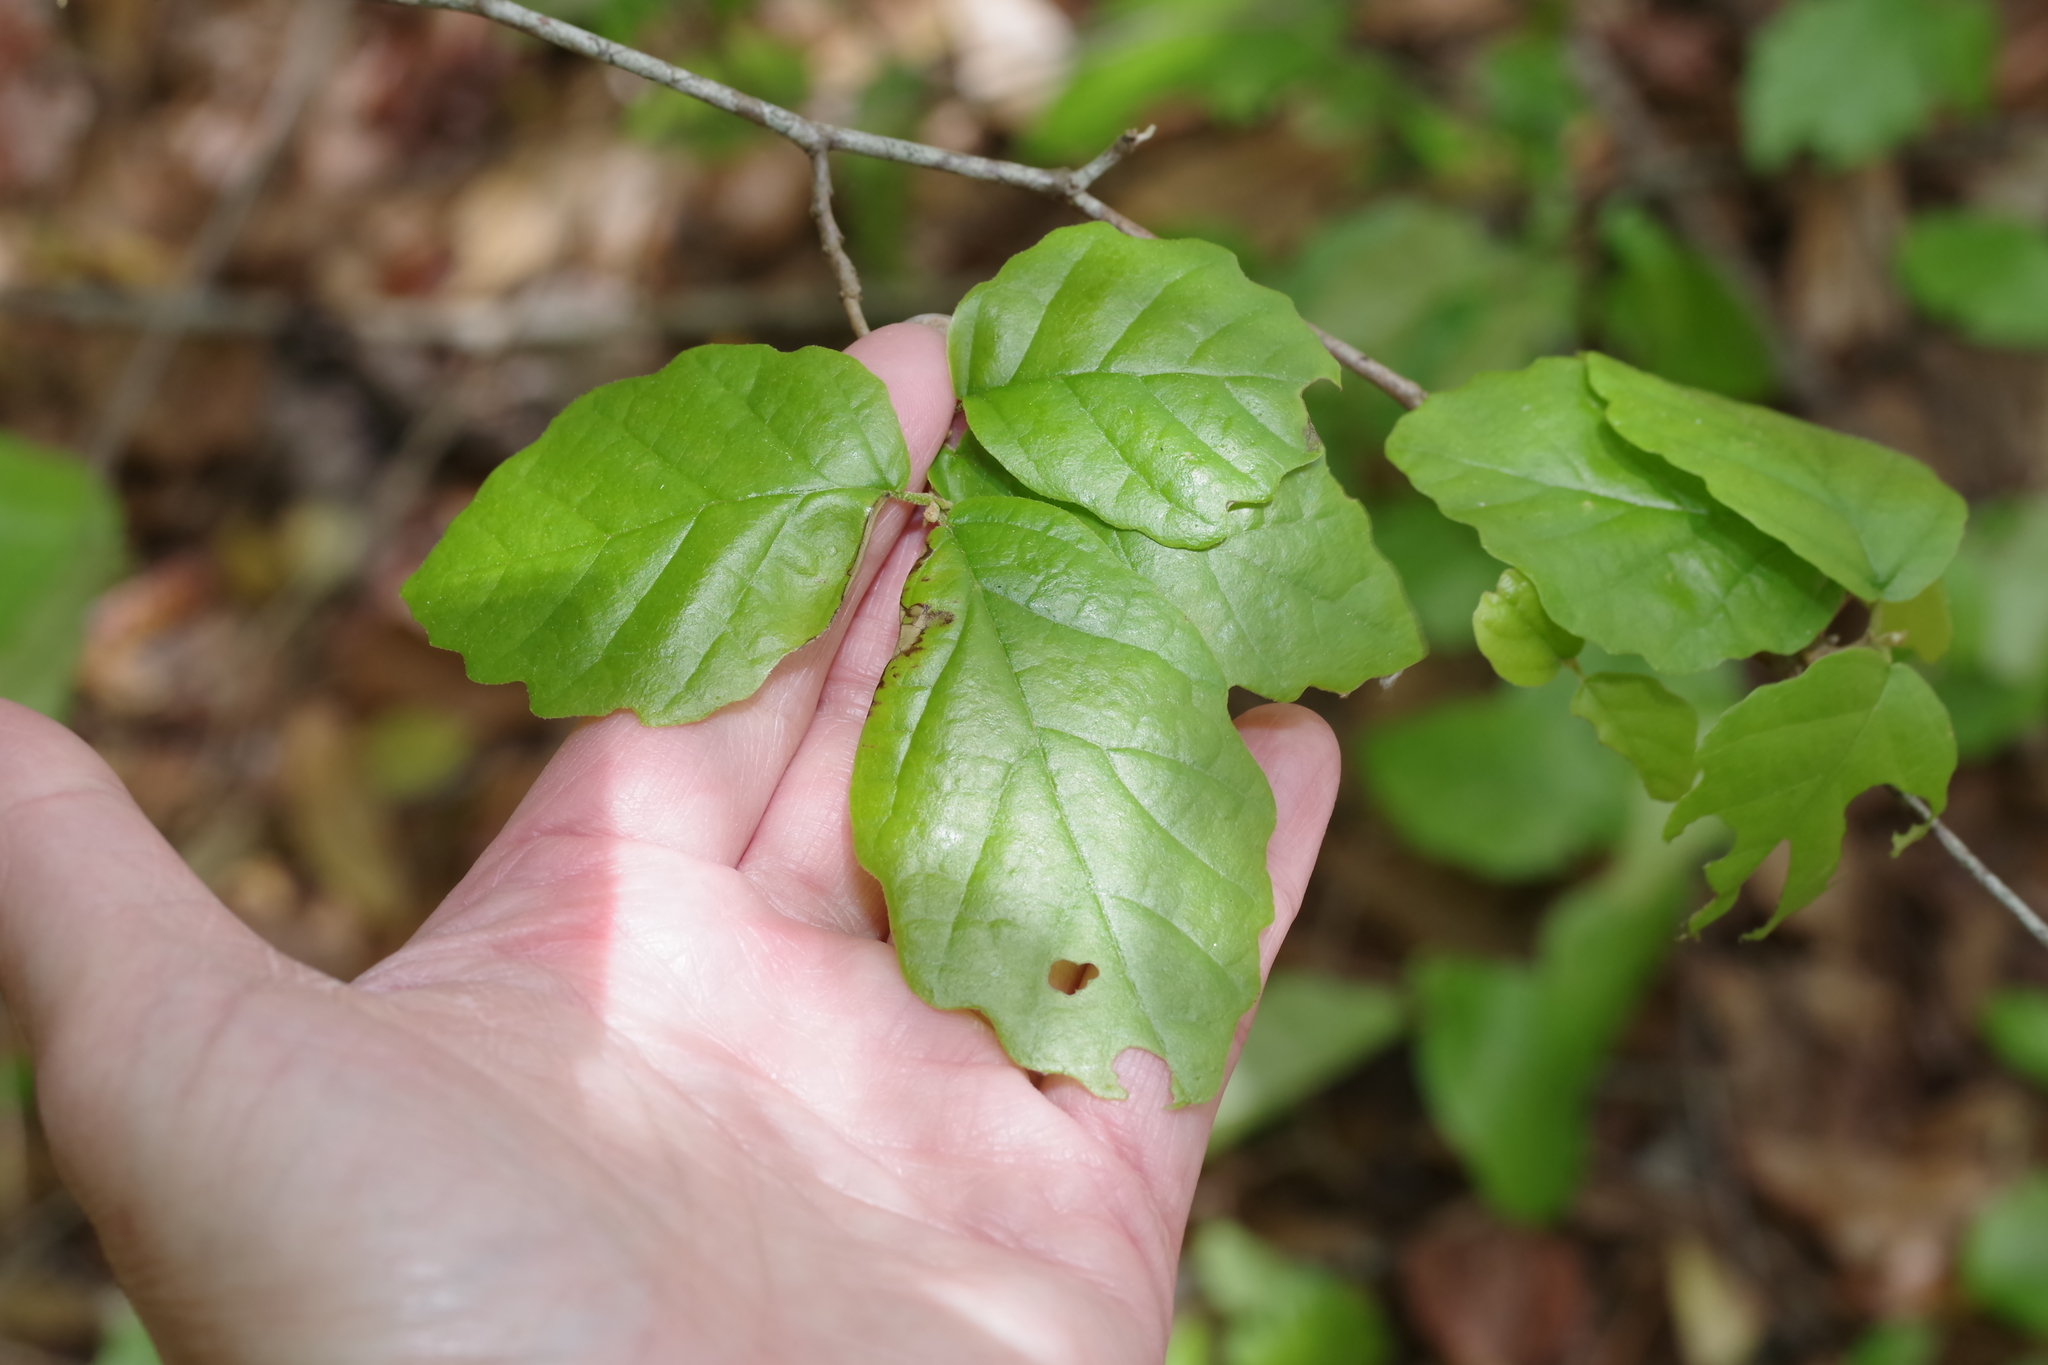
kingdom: Plantae
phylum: Tracheophyta
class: Magnoliopsida
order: Saxifragales
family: Hamamelidaceae
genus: Hamamelis
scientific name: Hamamelis virginiana
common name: Witch-hazel
